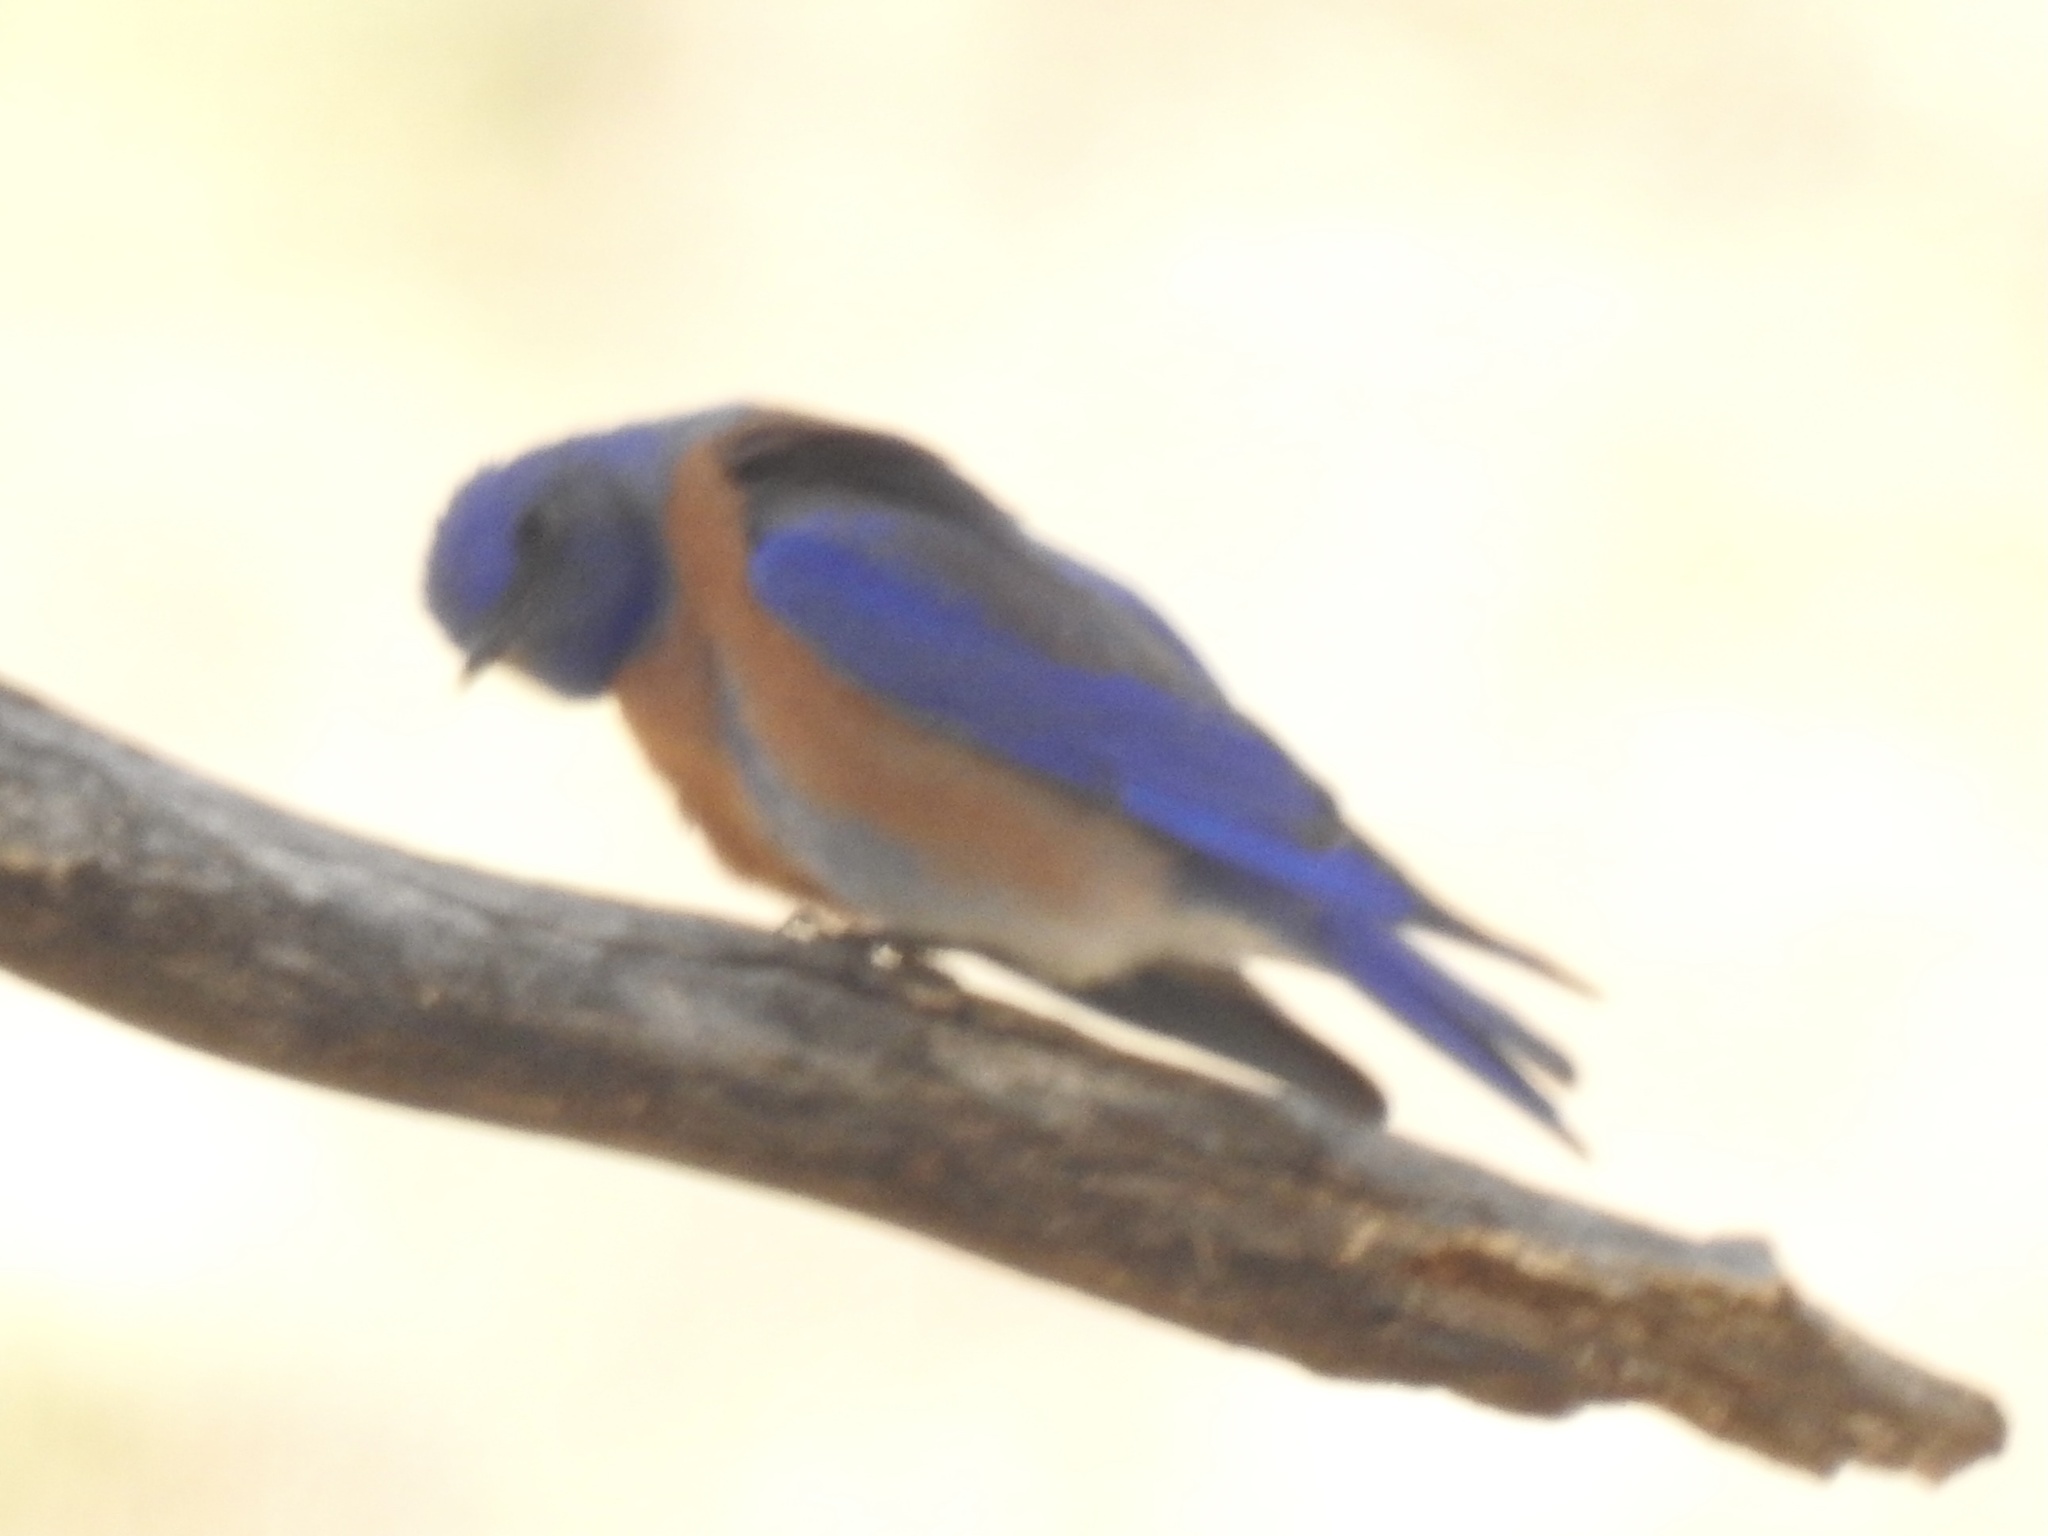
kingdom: Animalia
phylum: Chordata
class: Aves
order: Passeriformes
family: Turdidae
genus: Sialia
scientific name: Sialia mexicana
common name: Western bluebird
